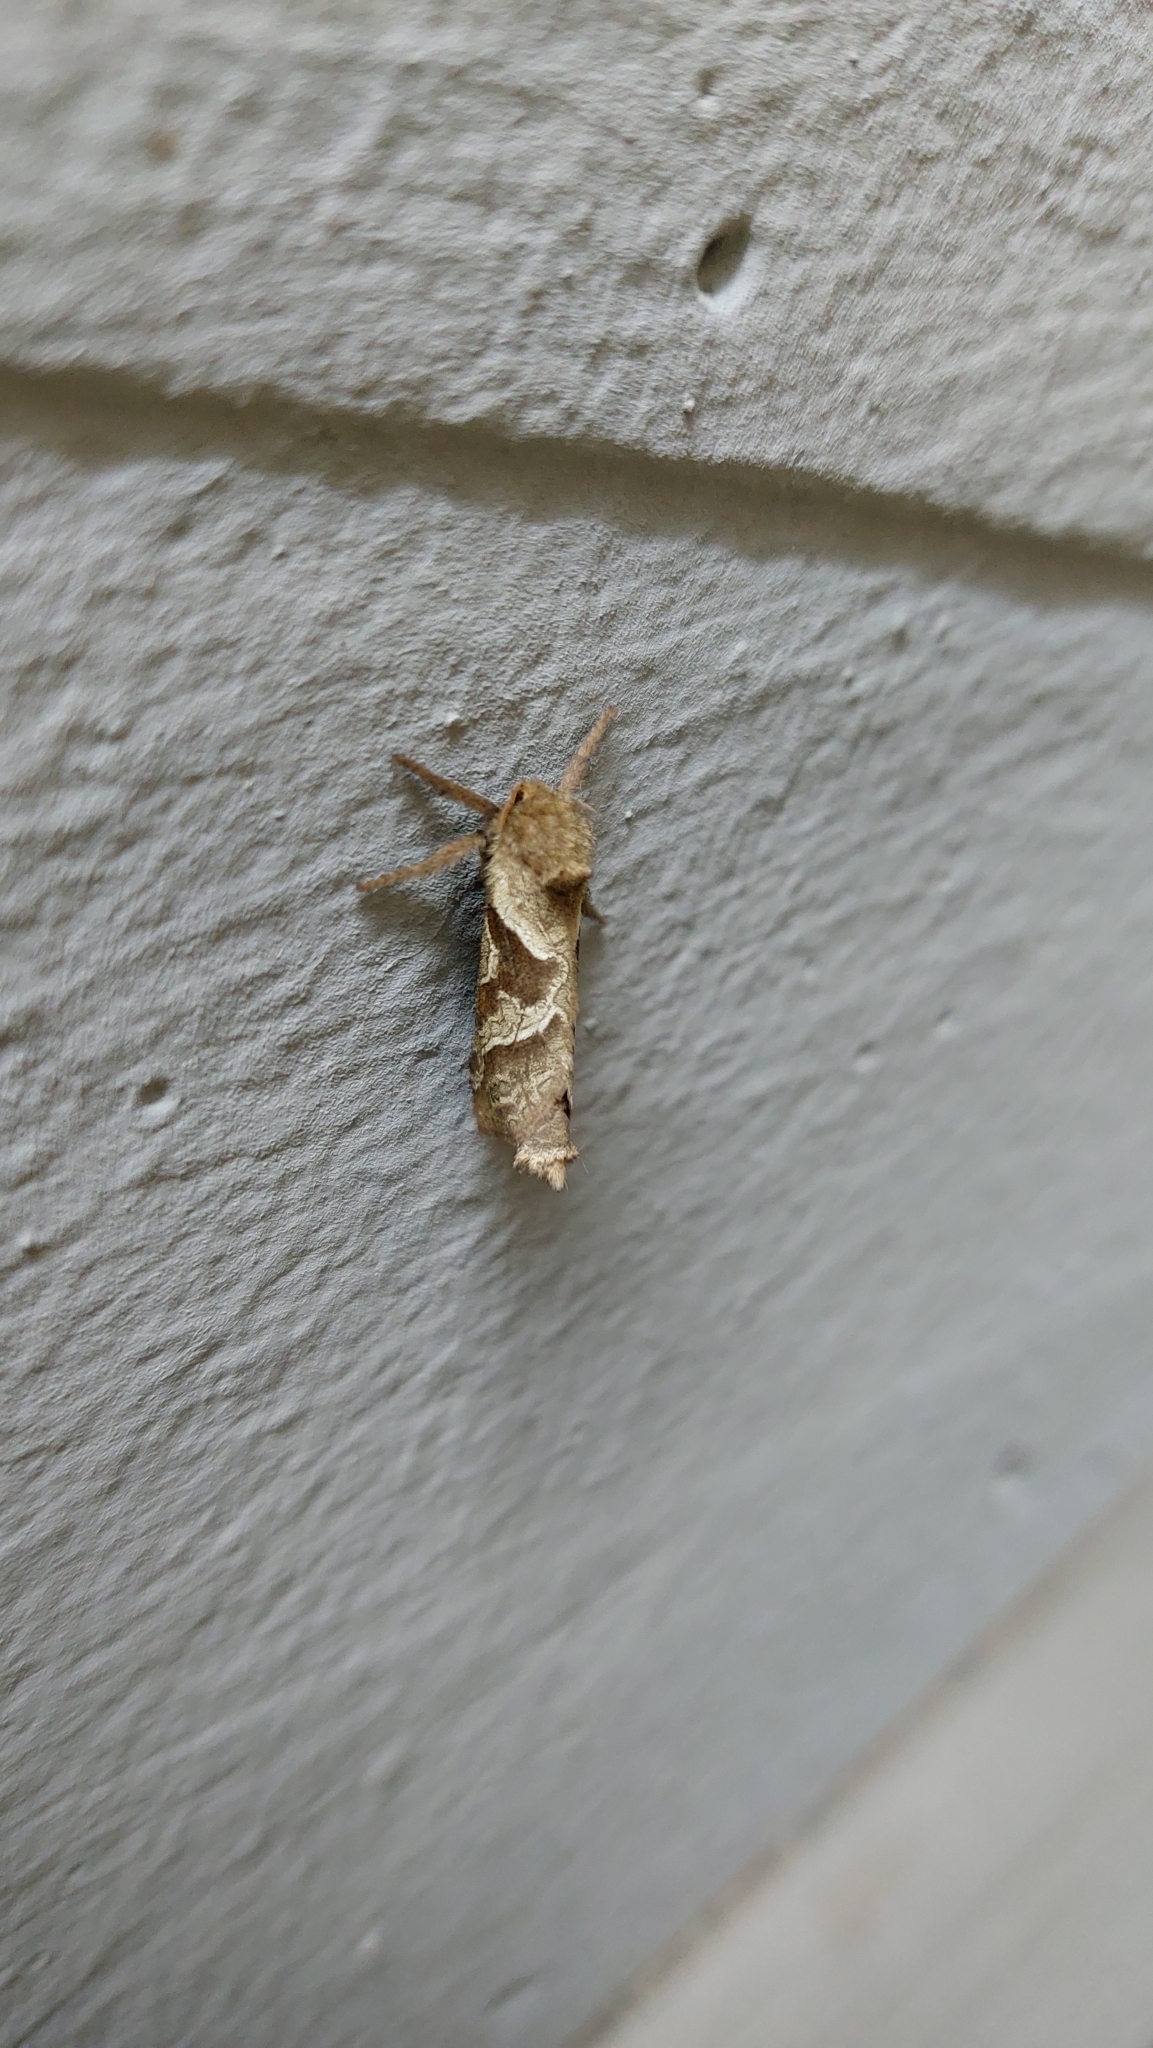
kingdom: Animalia
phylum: Arthropoda
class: Insecta
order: Lepidoptera
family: Hepialidae
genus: Triodia
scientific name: Triodia sylvina
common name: Orange swift
